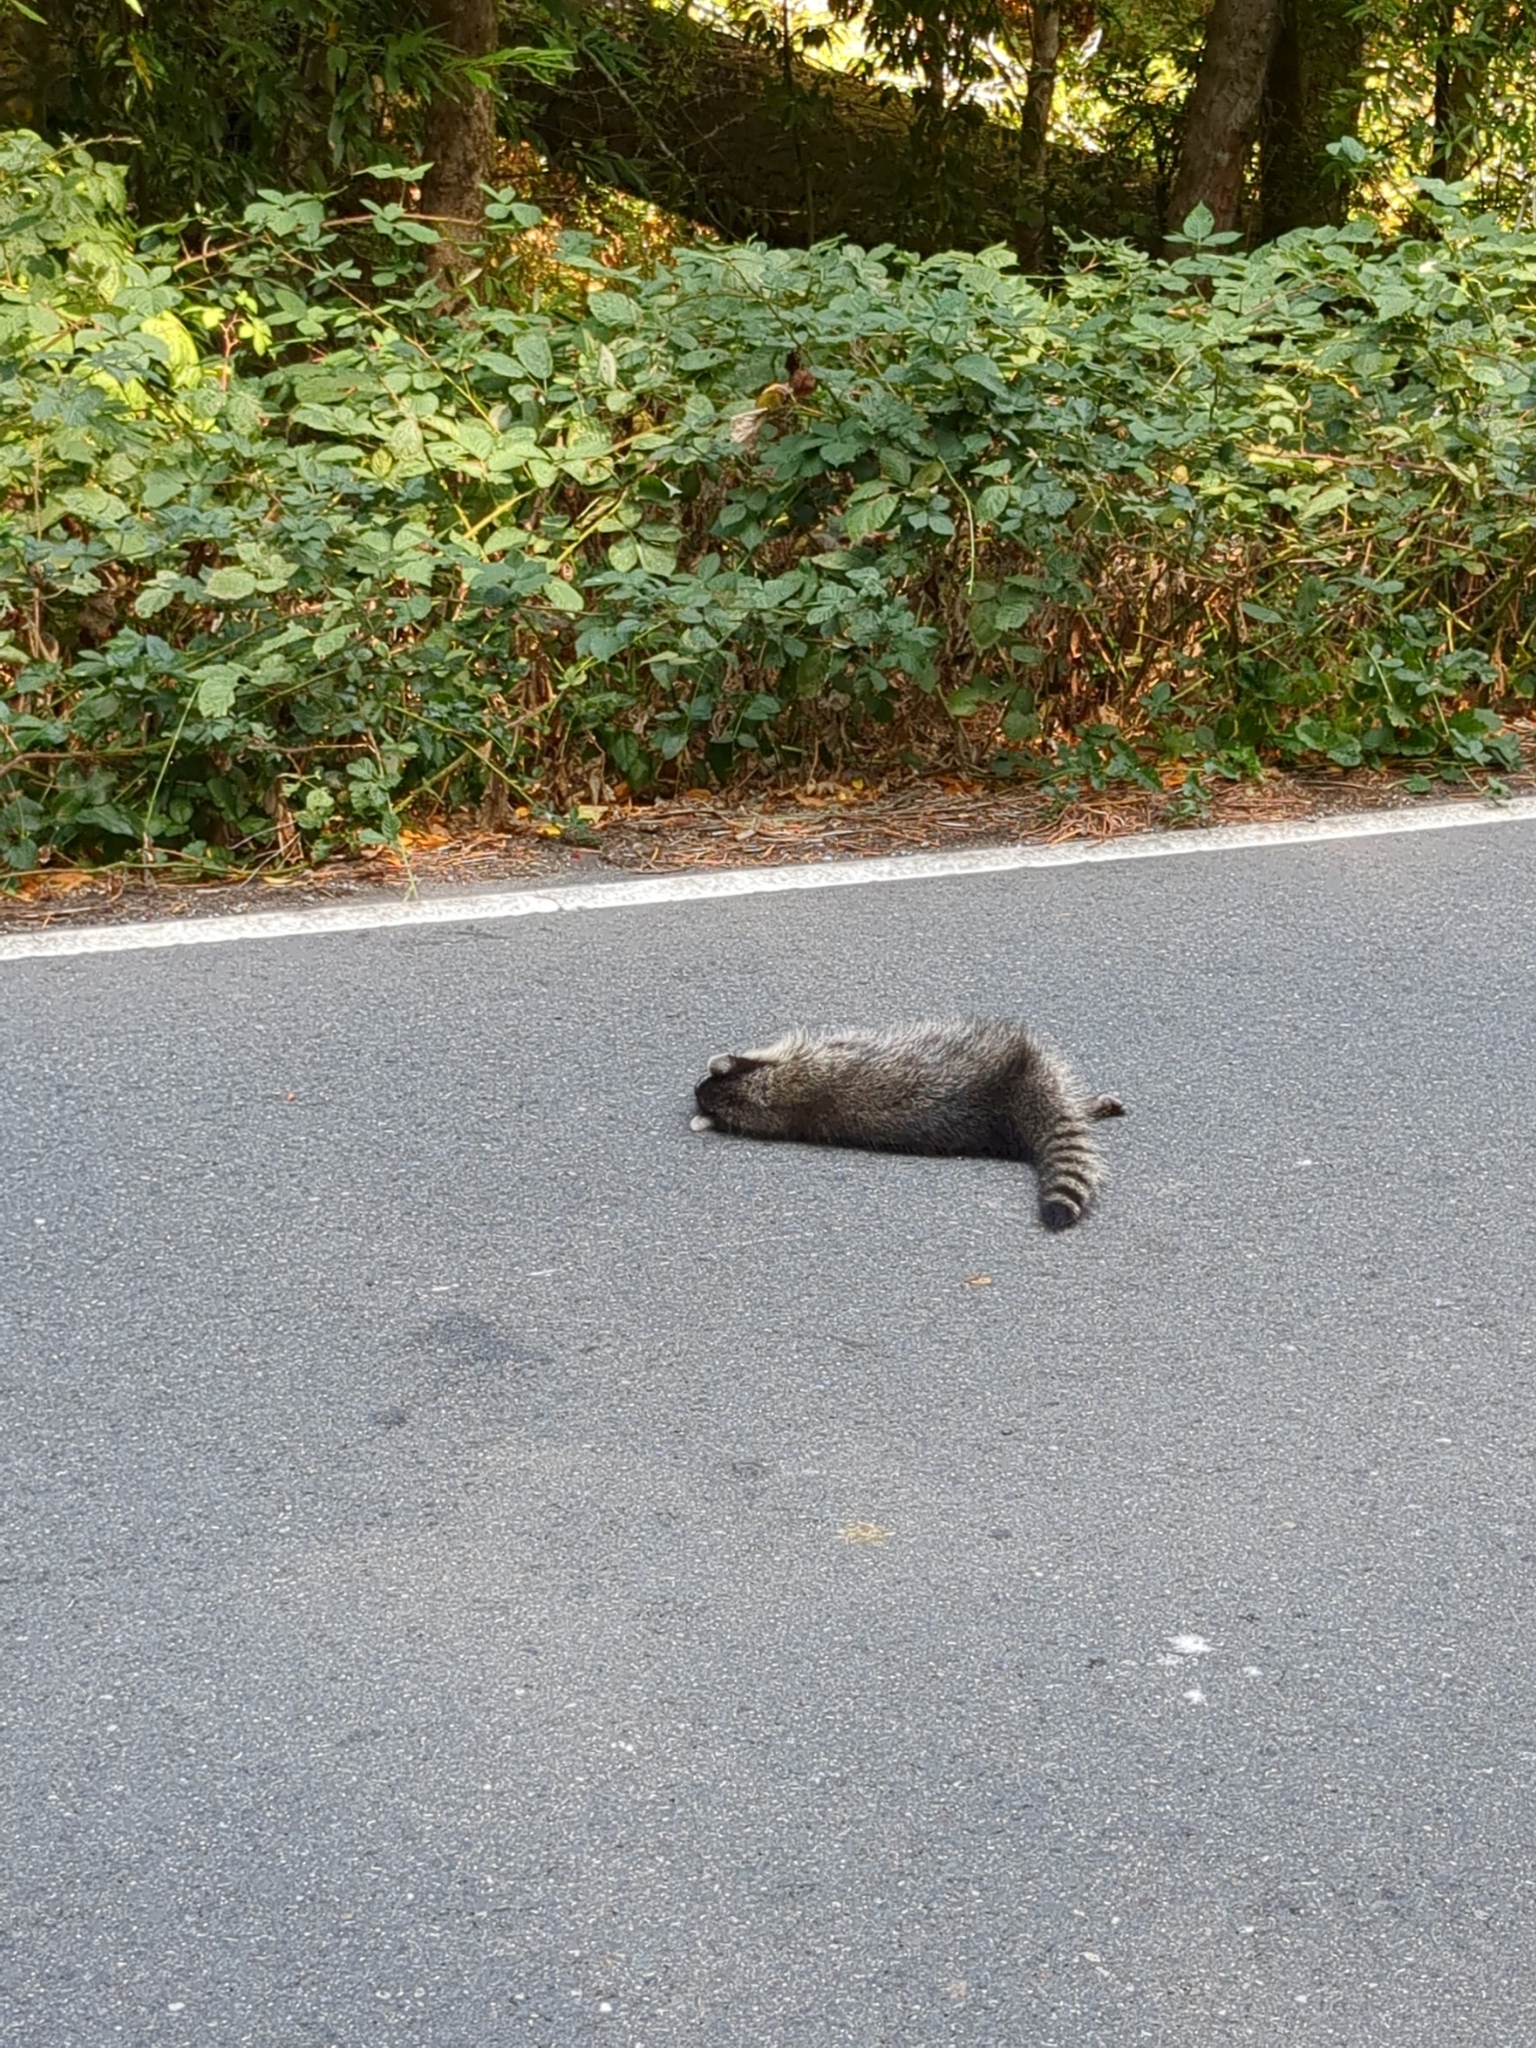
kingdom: Animalia
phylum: Chordata
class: Mammalia
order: Carnivora
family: Procyonidae
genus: Procyon
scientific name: Procyon lotor
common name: Raccoon
